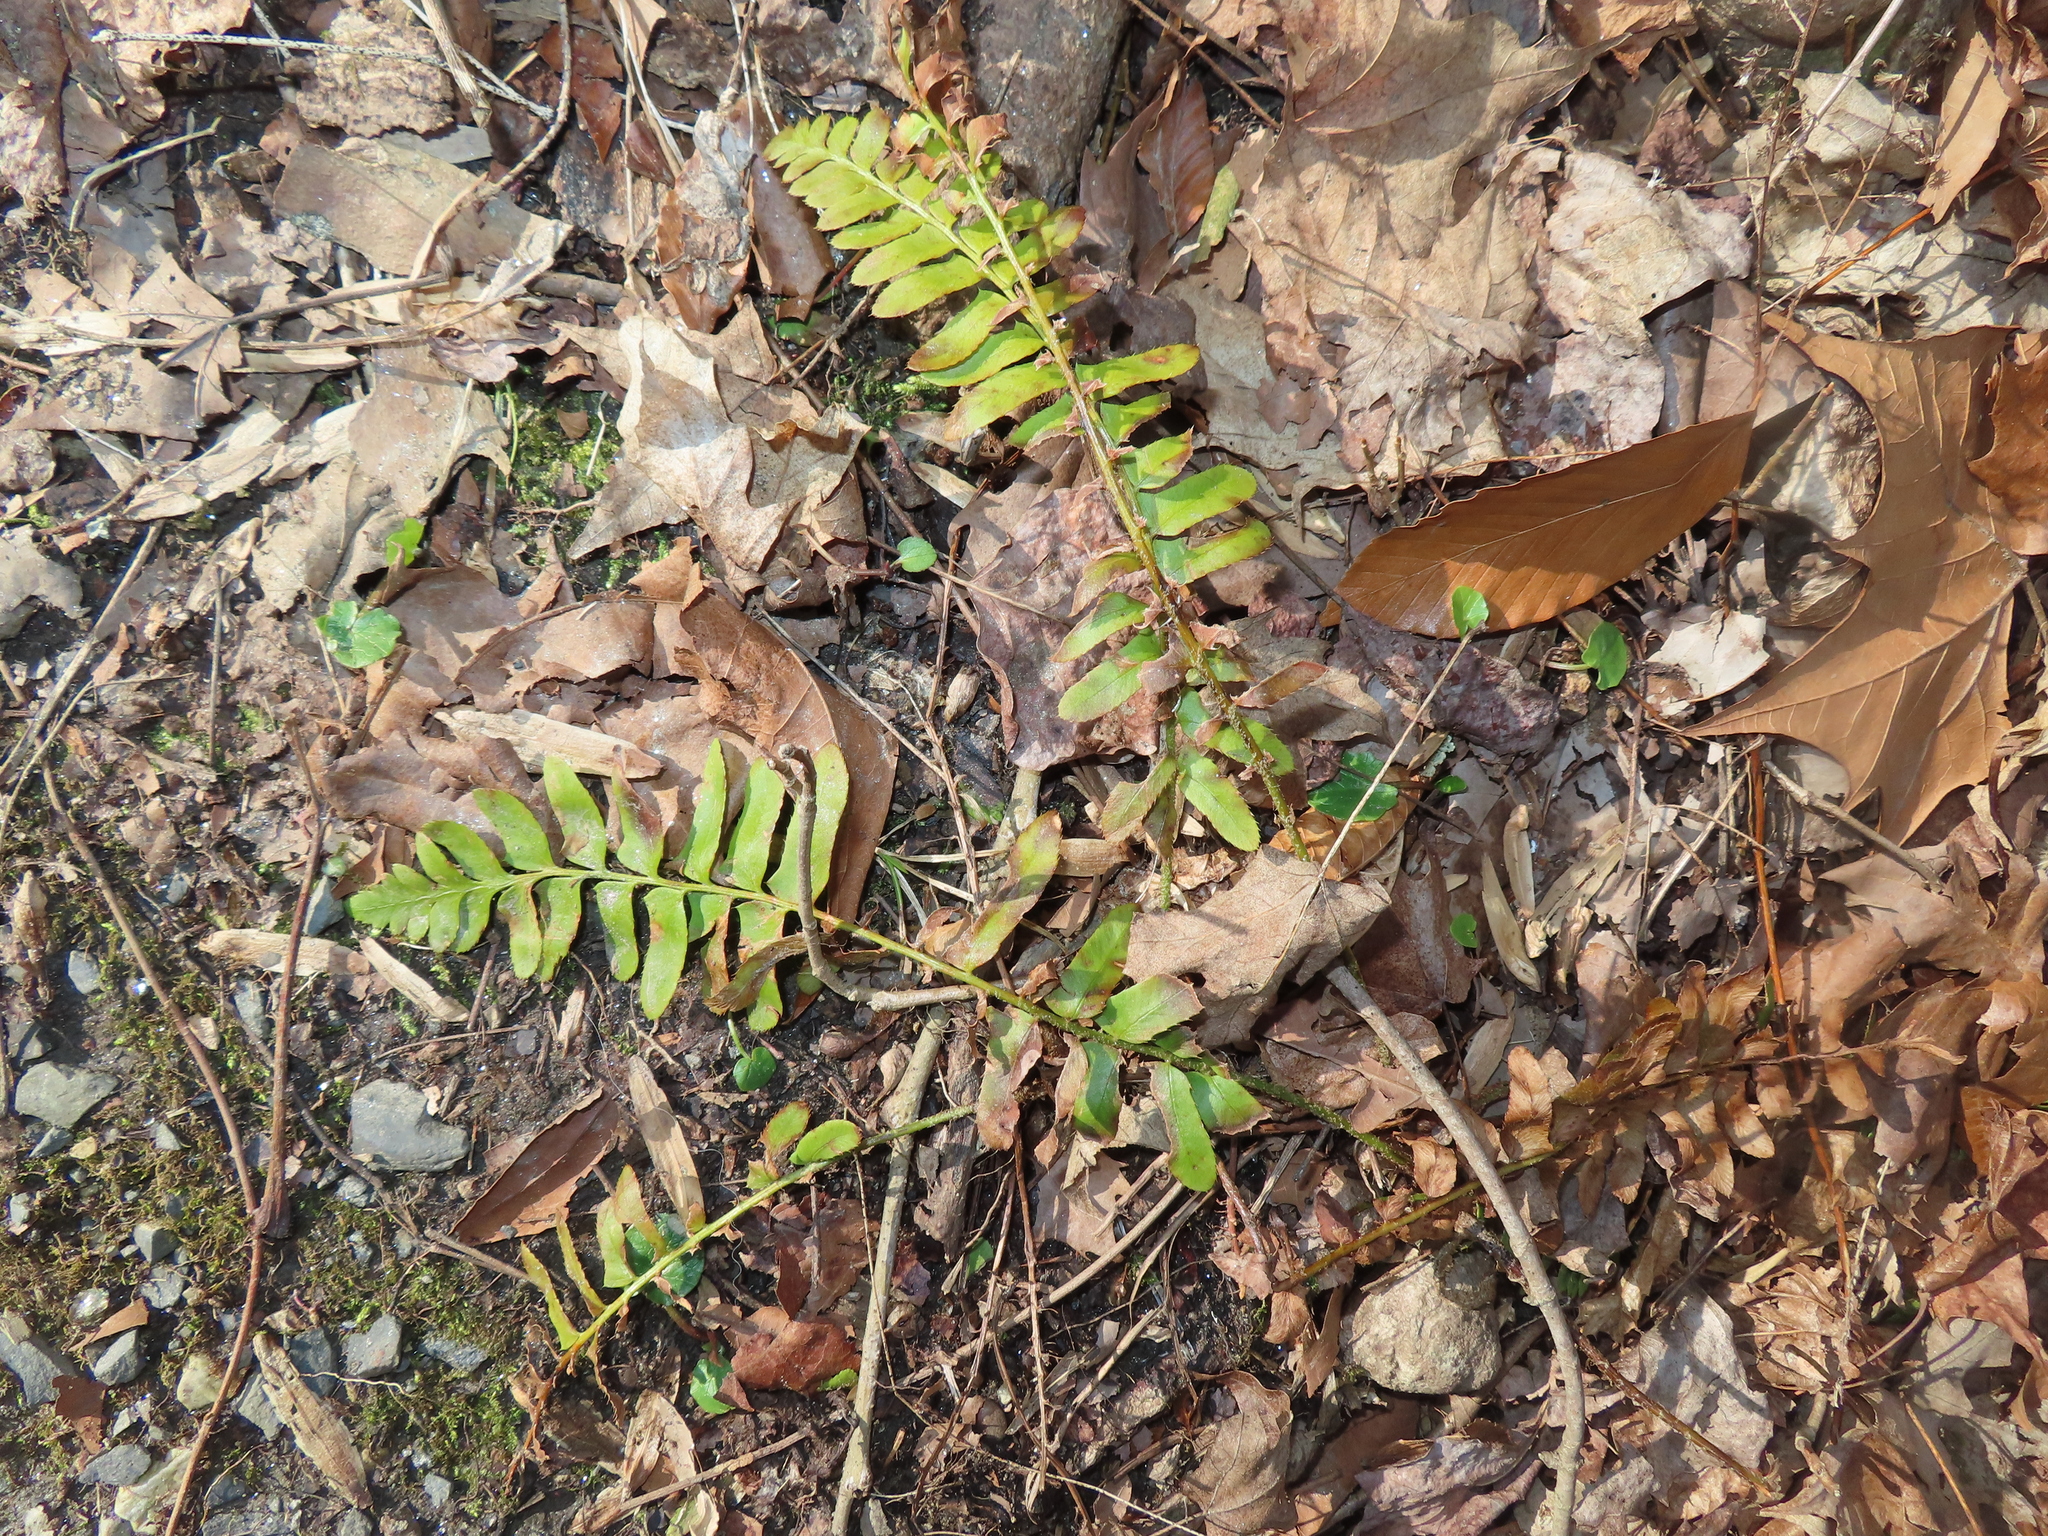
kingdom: Plantae
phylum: Tracheophyta
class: Polypodiopsida
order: Polypodiales
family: Dryopteridaceae
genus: Polystichum
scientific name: Polystichum acrostichoides
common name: Christmas fern
